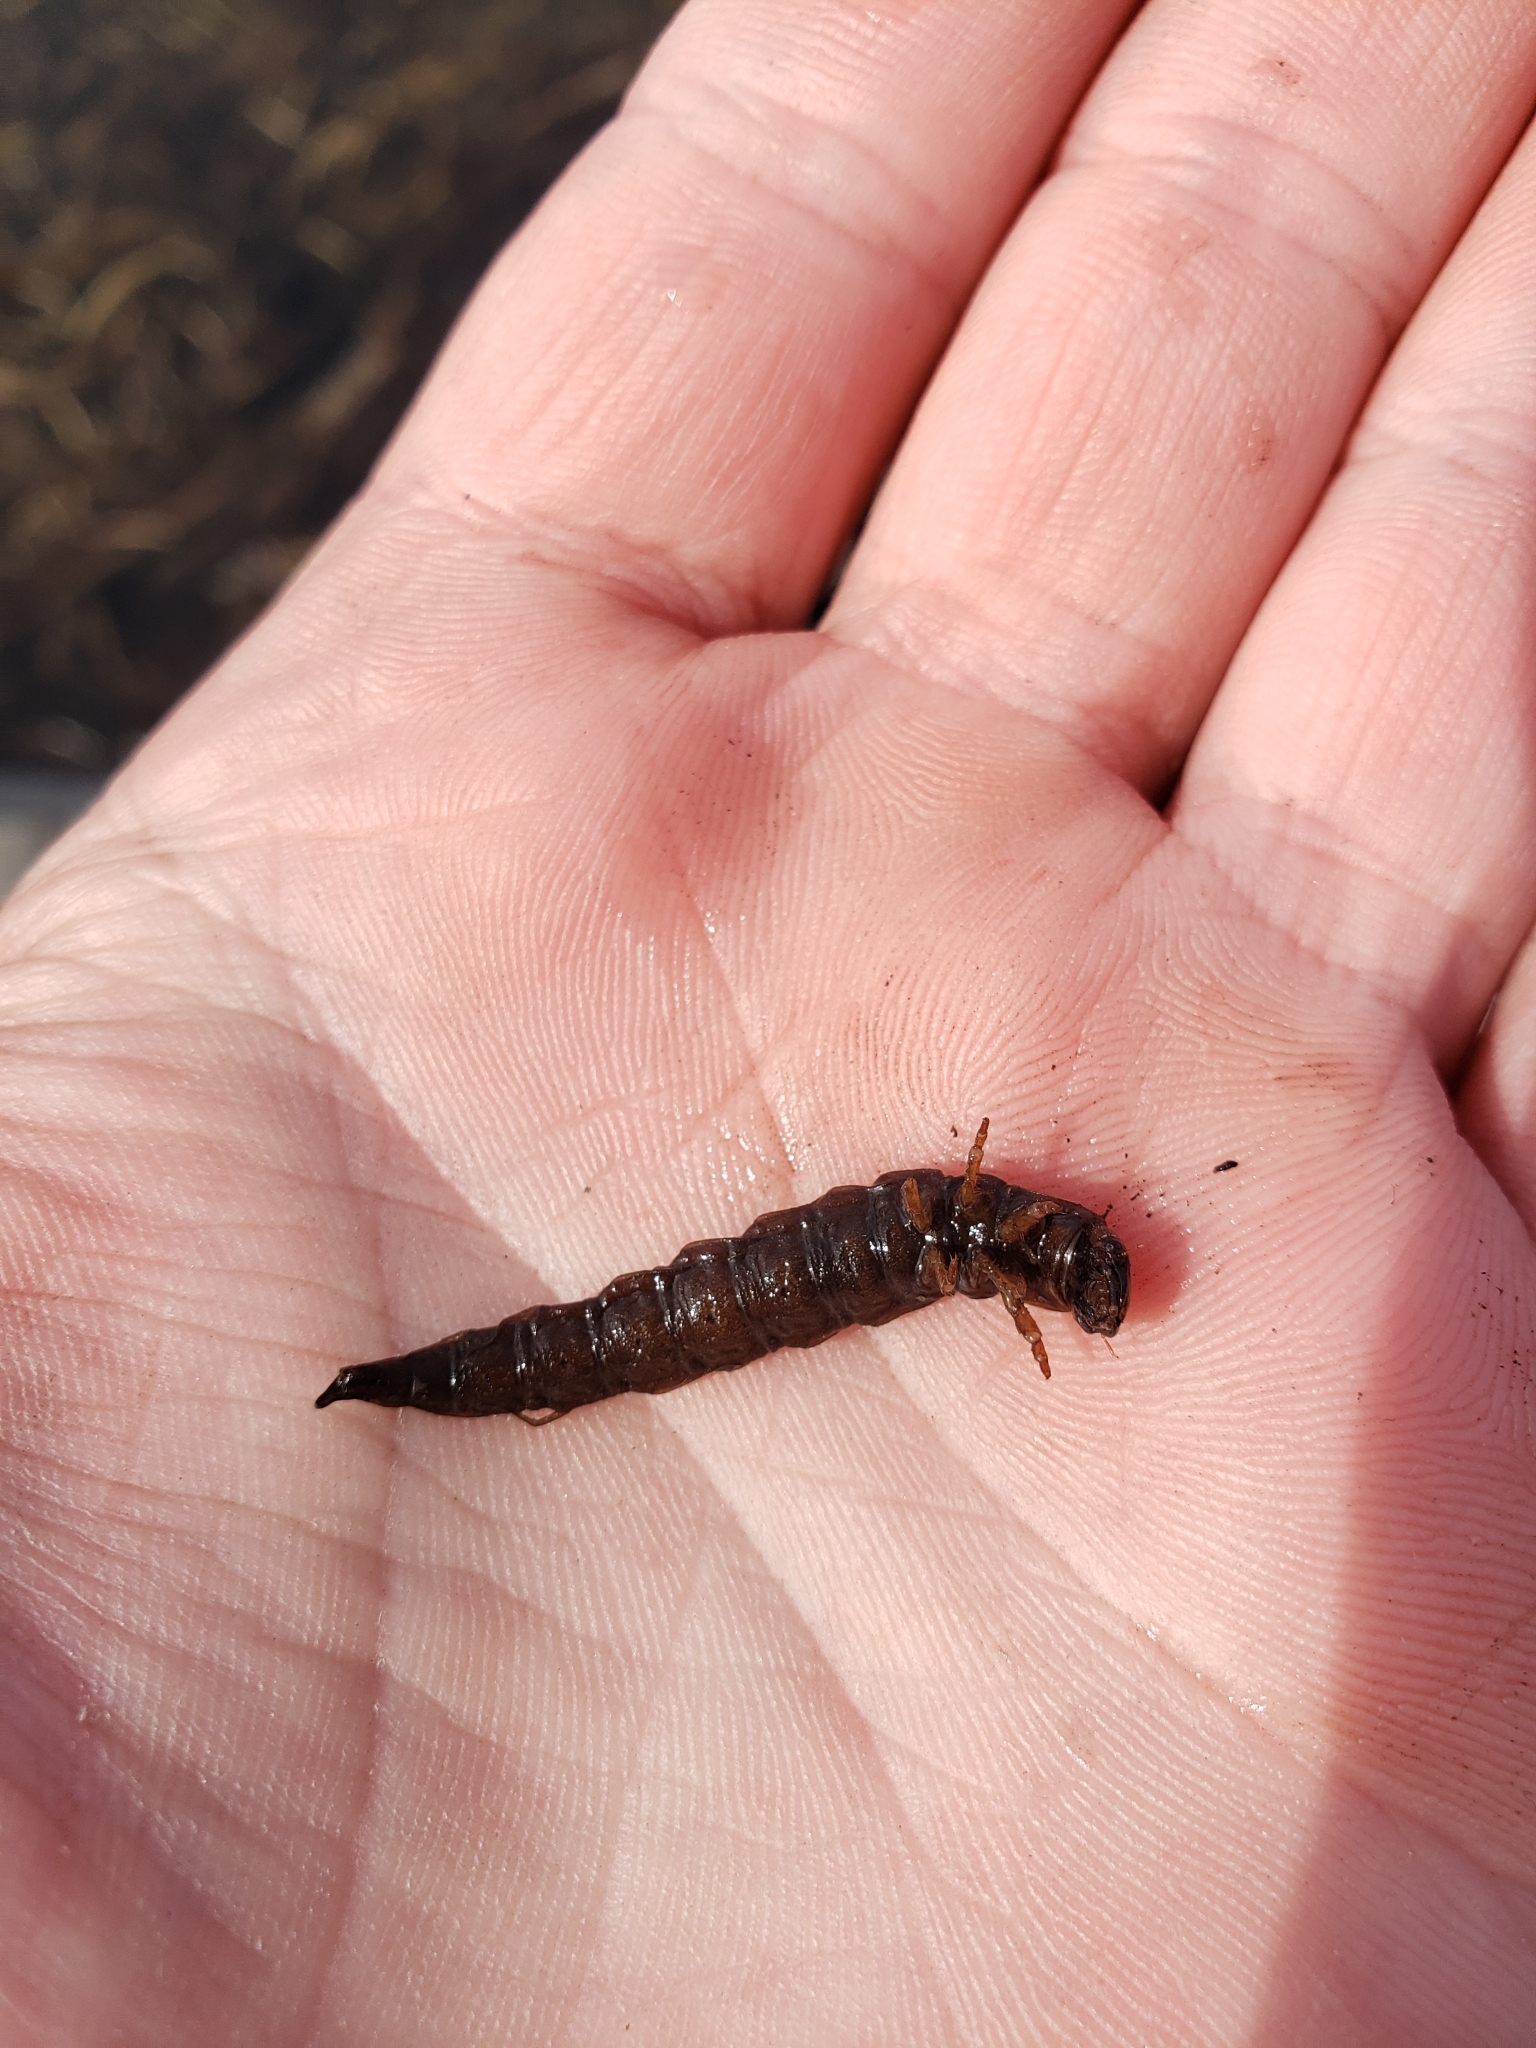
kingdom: Animalia
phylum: Arthropoda
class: Insecta
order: Megaloptera
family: Corydalidae
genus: Chauliodes
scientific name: Chauliodes rastricornis
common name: Spring fishfly
